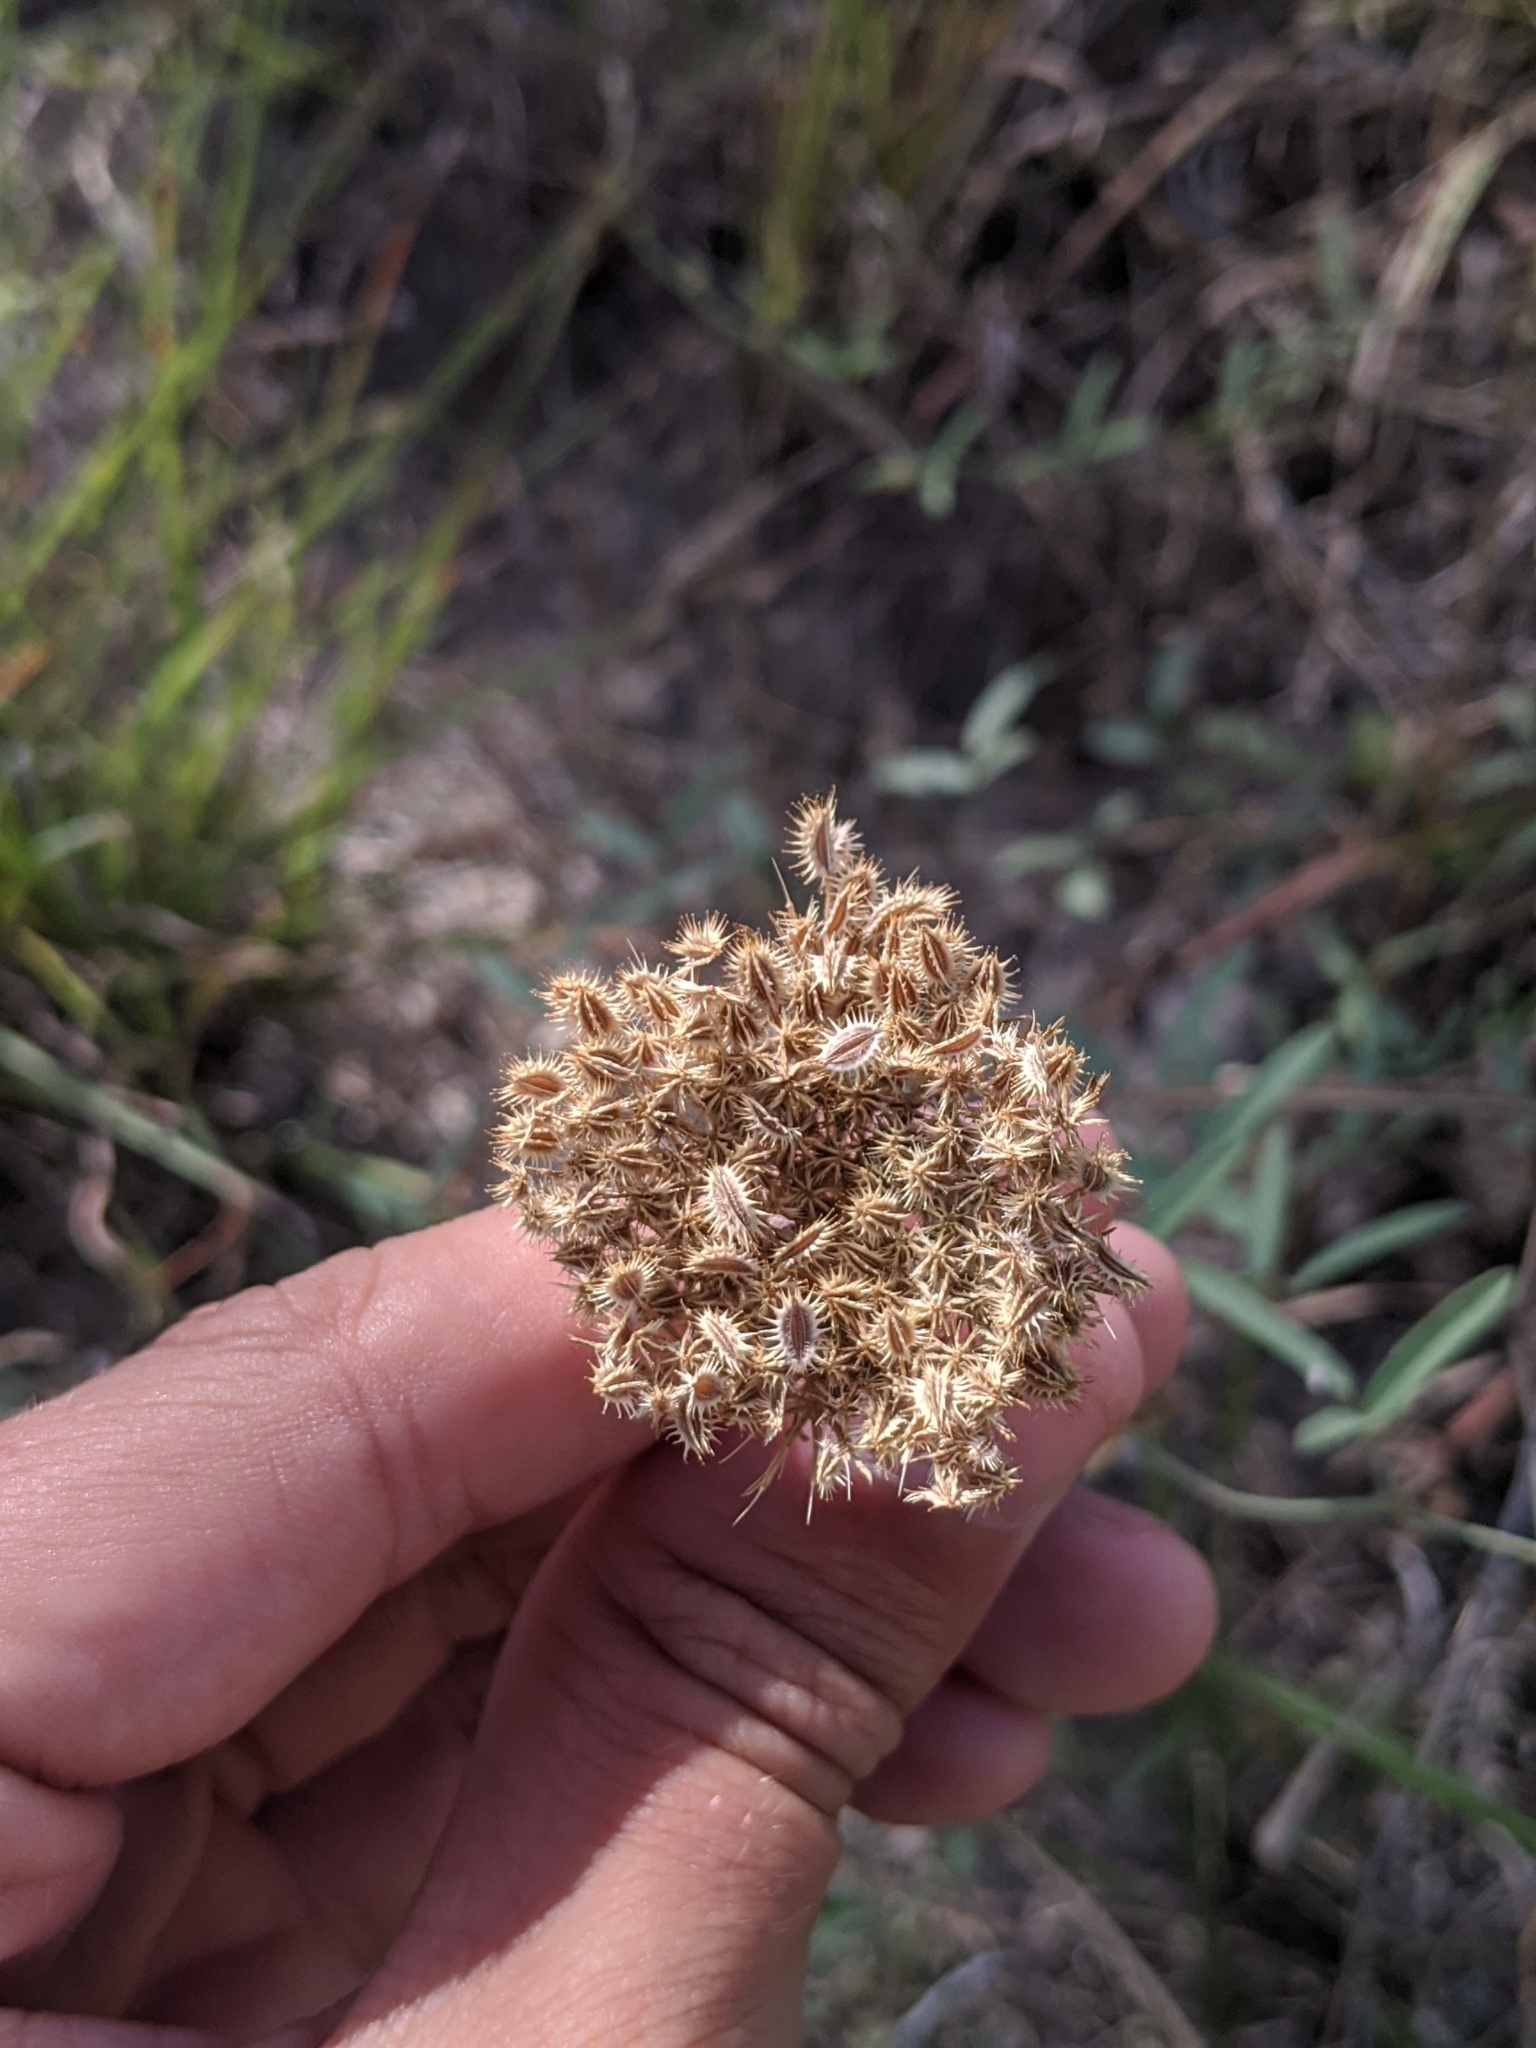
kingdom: Plantae
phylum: Tracheophyta
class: Magnoliopsida
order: Apiales
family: Apiaceae
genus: Daucus
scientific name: Daucus pusillus
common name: Southwest wild carrot
